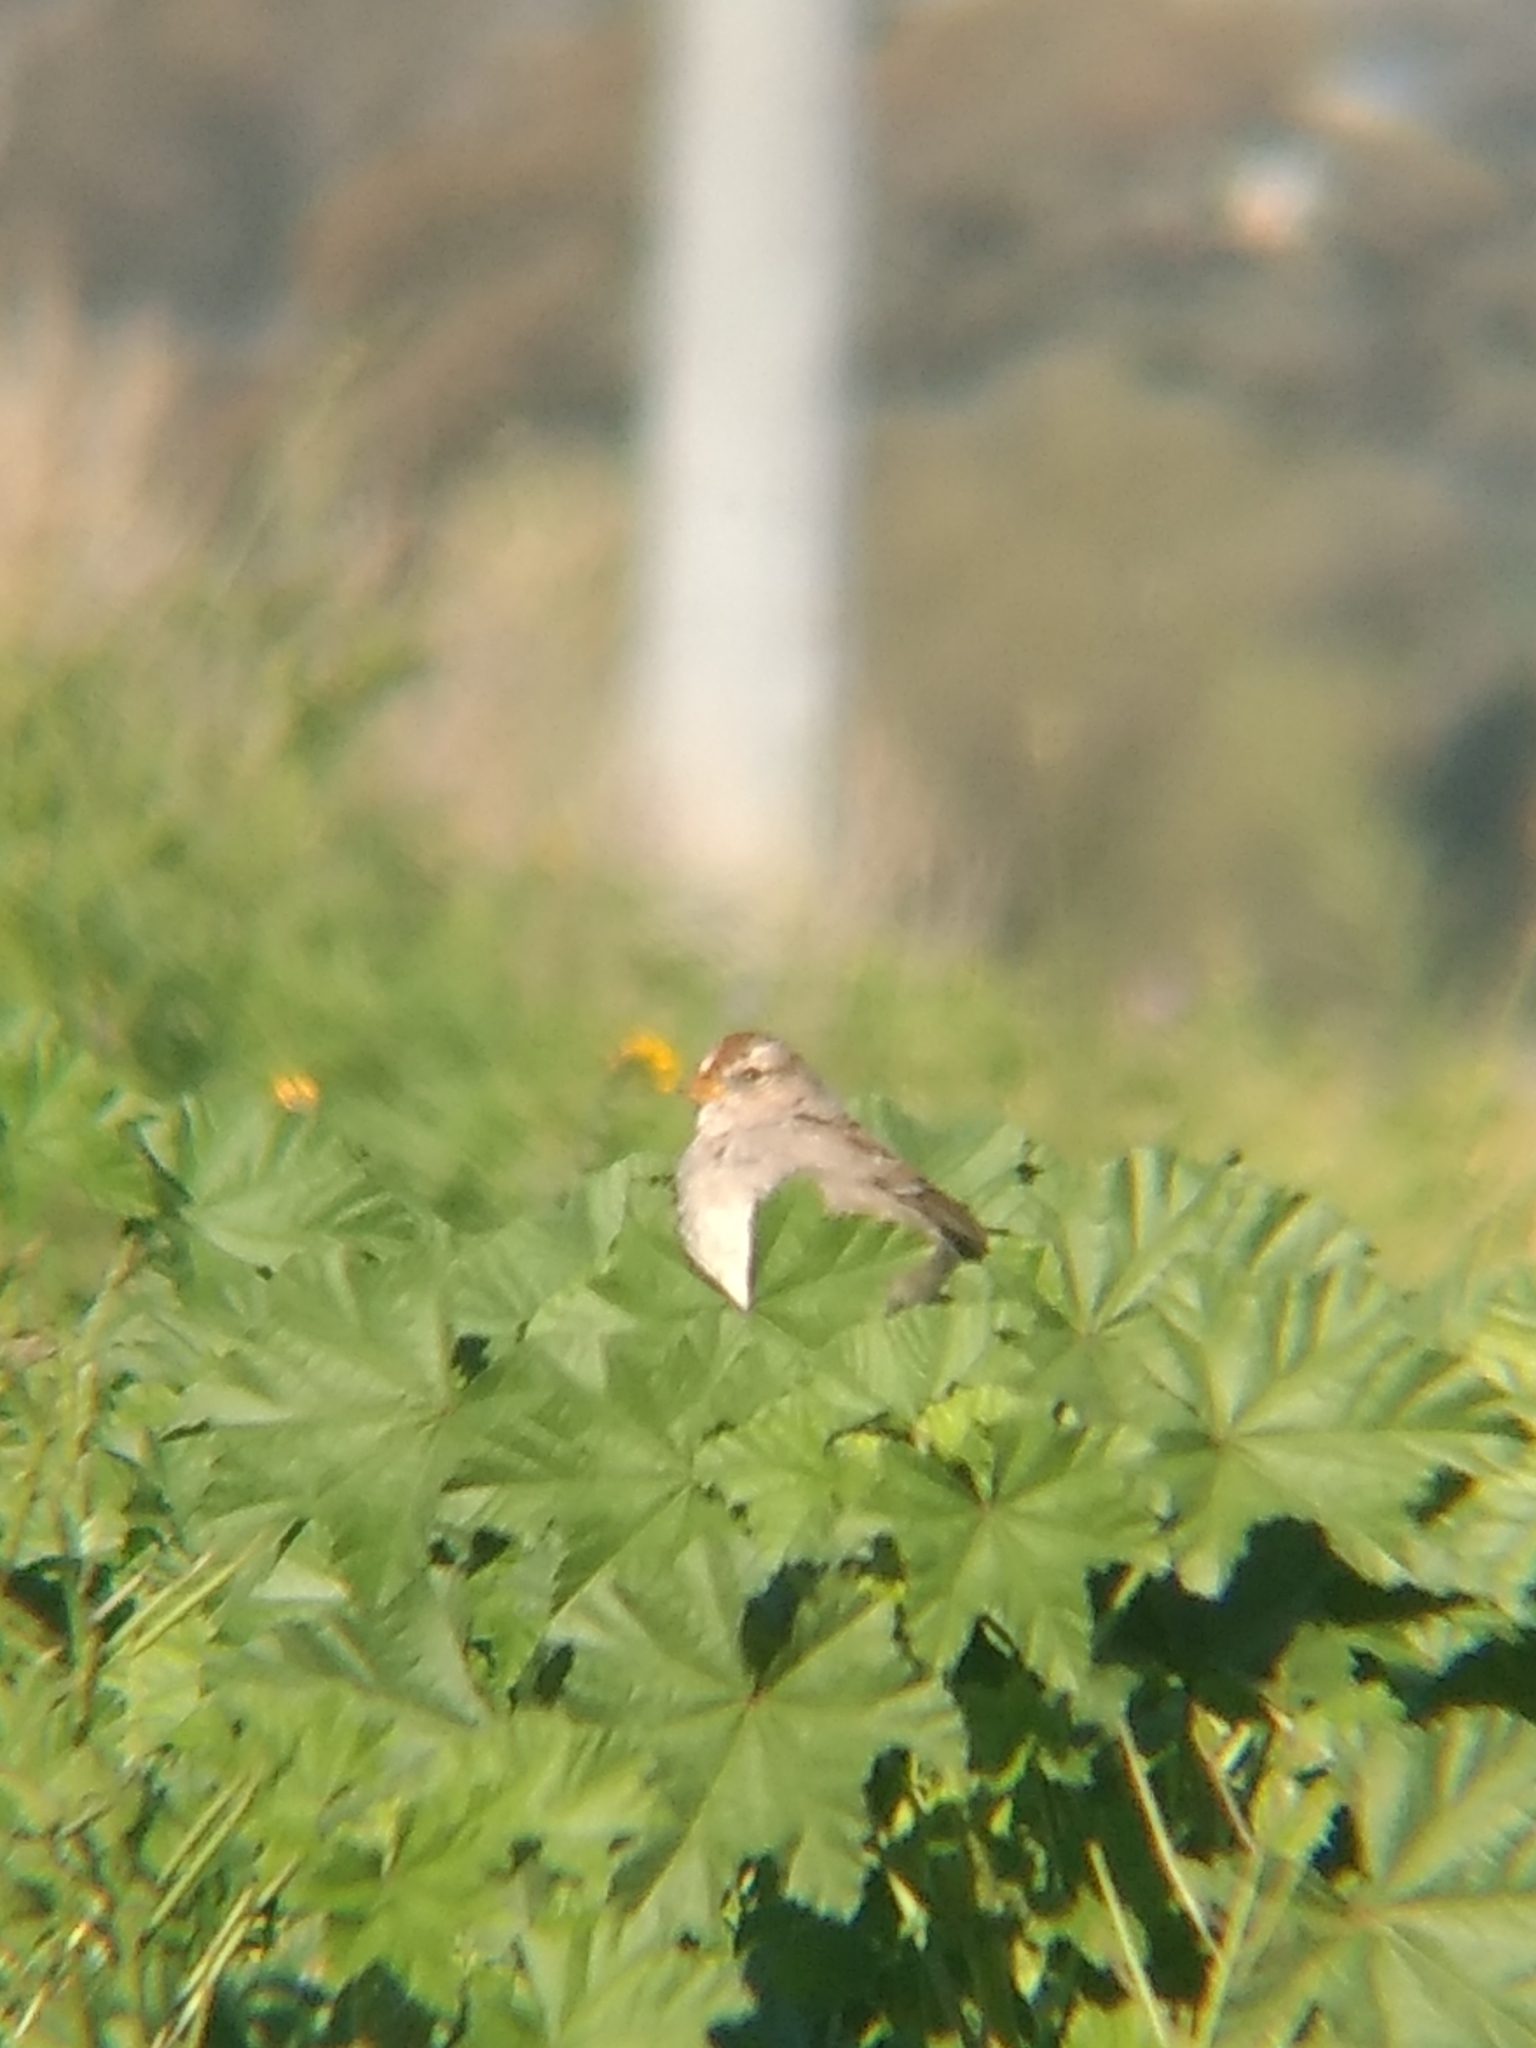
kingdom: Animalia
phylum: Chordata
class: Aves
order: Passeriformes
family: Passerellidae
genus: Zonotrichia
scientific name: Zonotrichia leucophrys
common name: White-crowned sparrow
